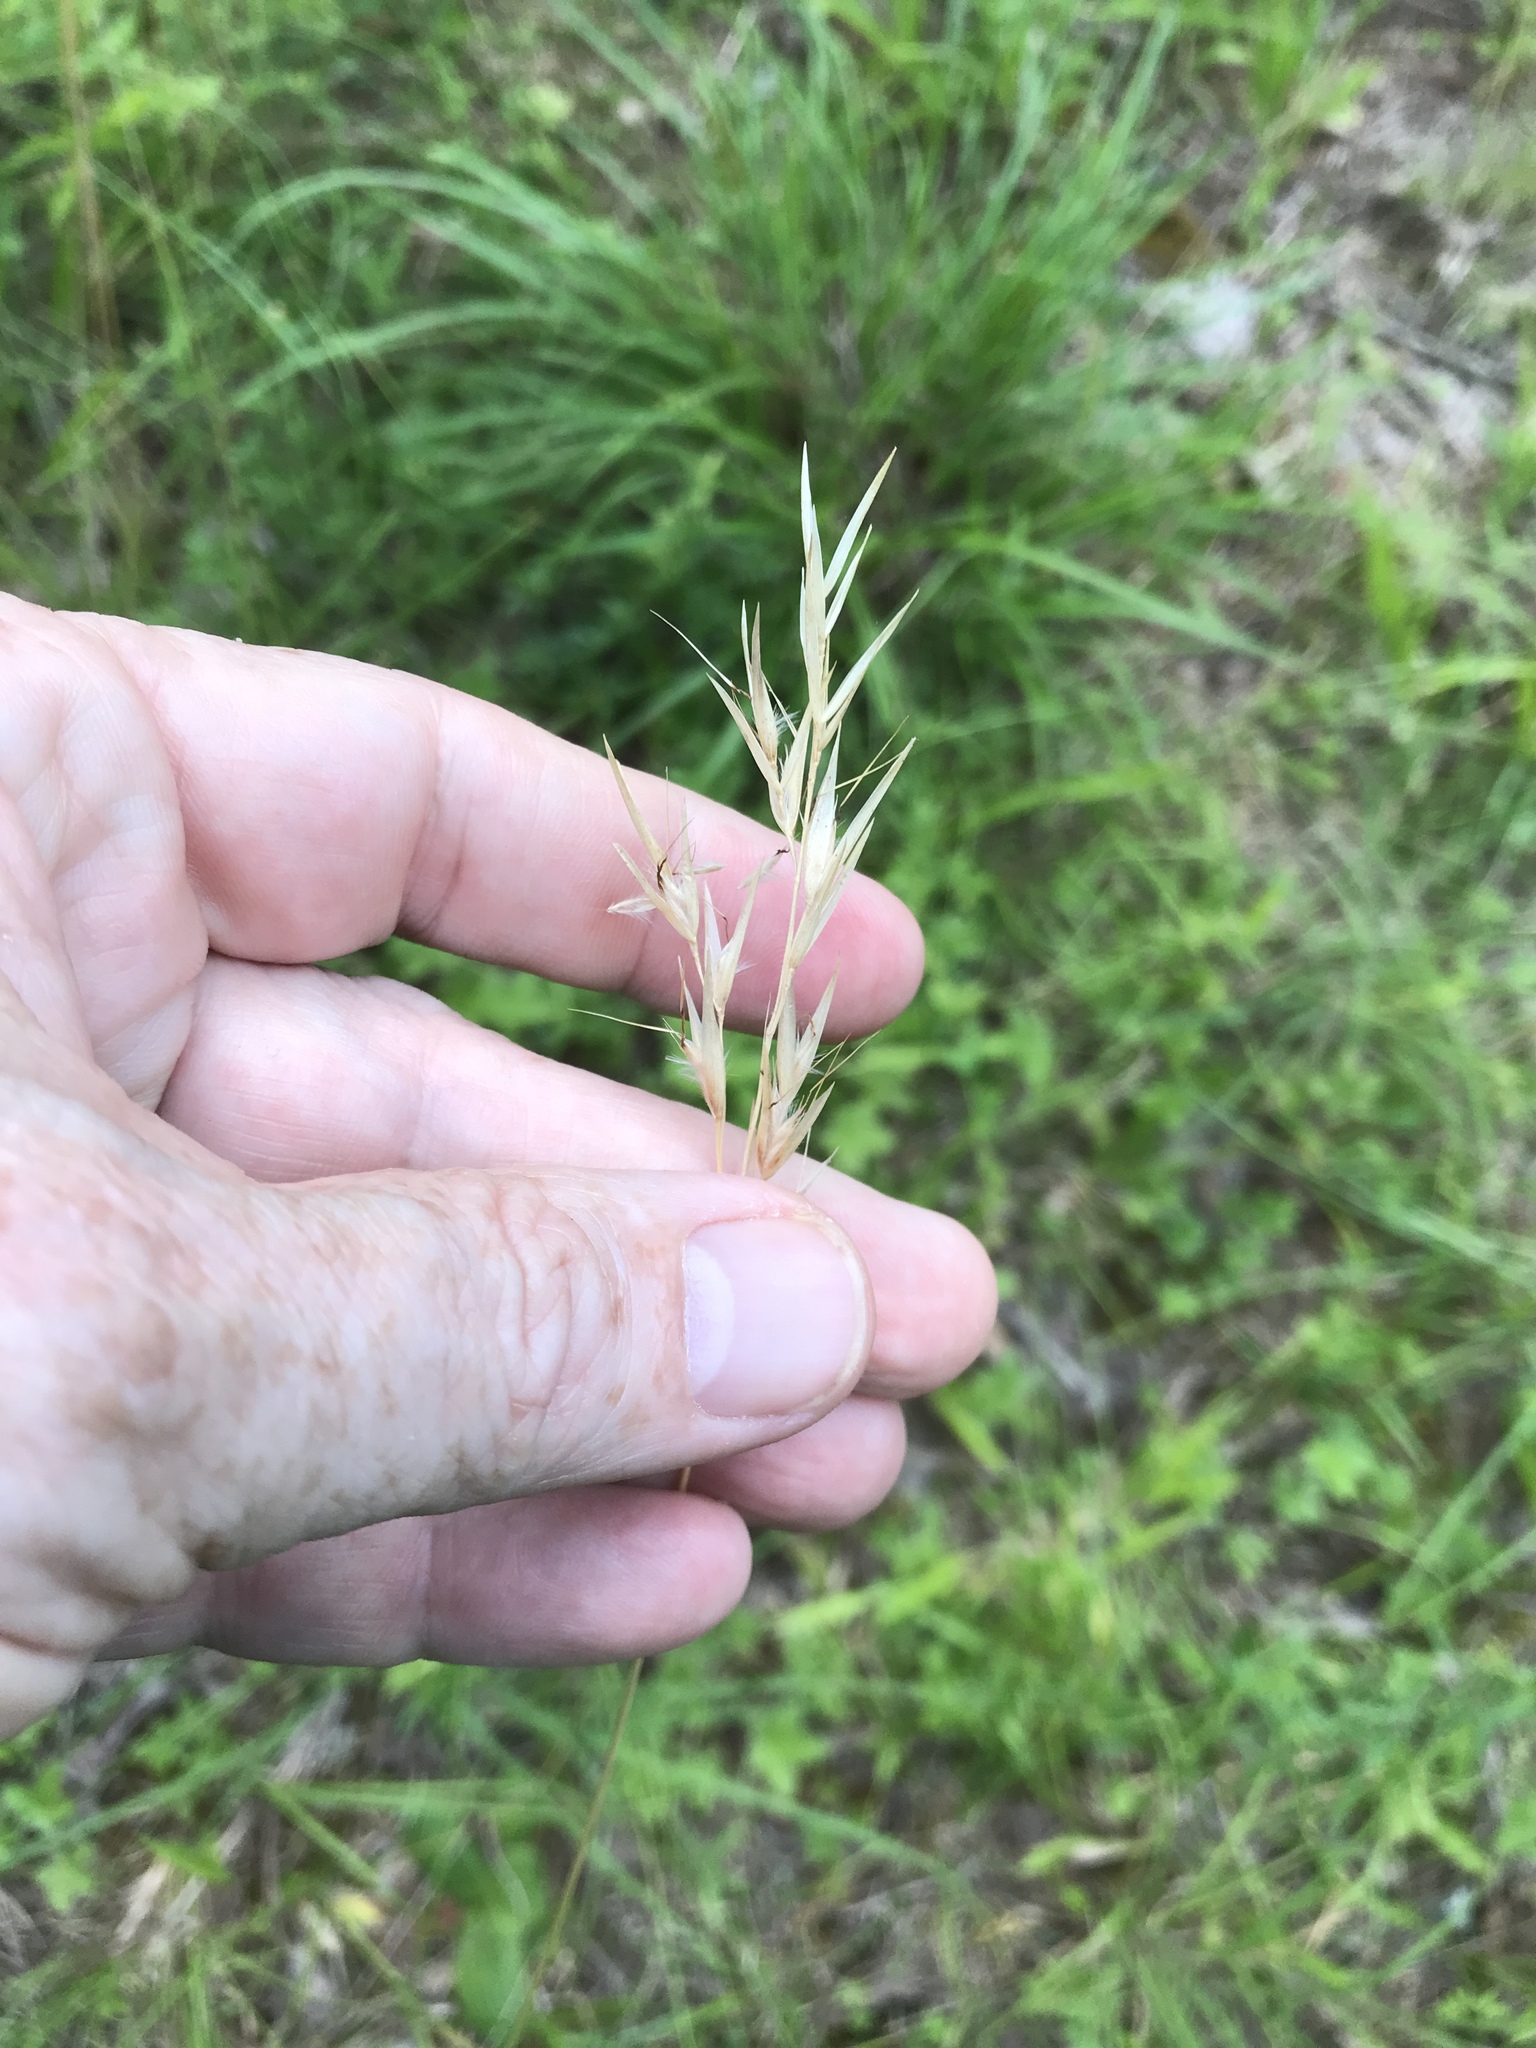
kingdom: Plantae
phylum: Tracheophyta
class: Liliopsida
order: Poales
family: Poaceae
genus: Danthonia
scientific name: Danthonia sericea
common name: Downy danthonia
